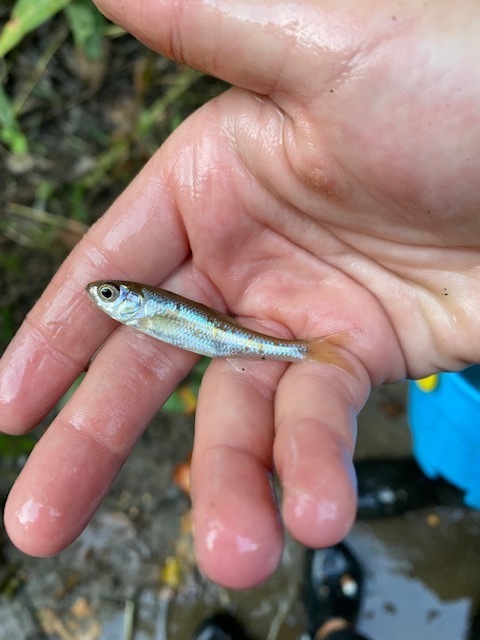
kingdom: Animalia
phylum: Chordata
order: Cypriniformes
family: Cyprinidae
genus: Luxilus
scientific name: Luxilus cornutus
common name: Common shiner
